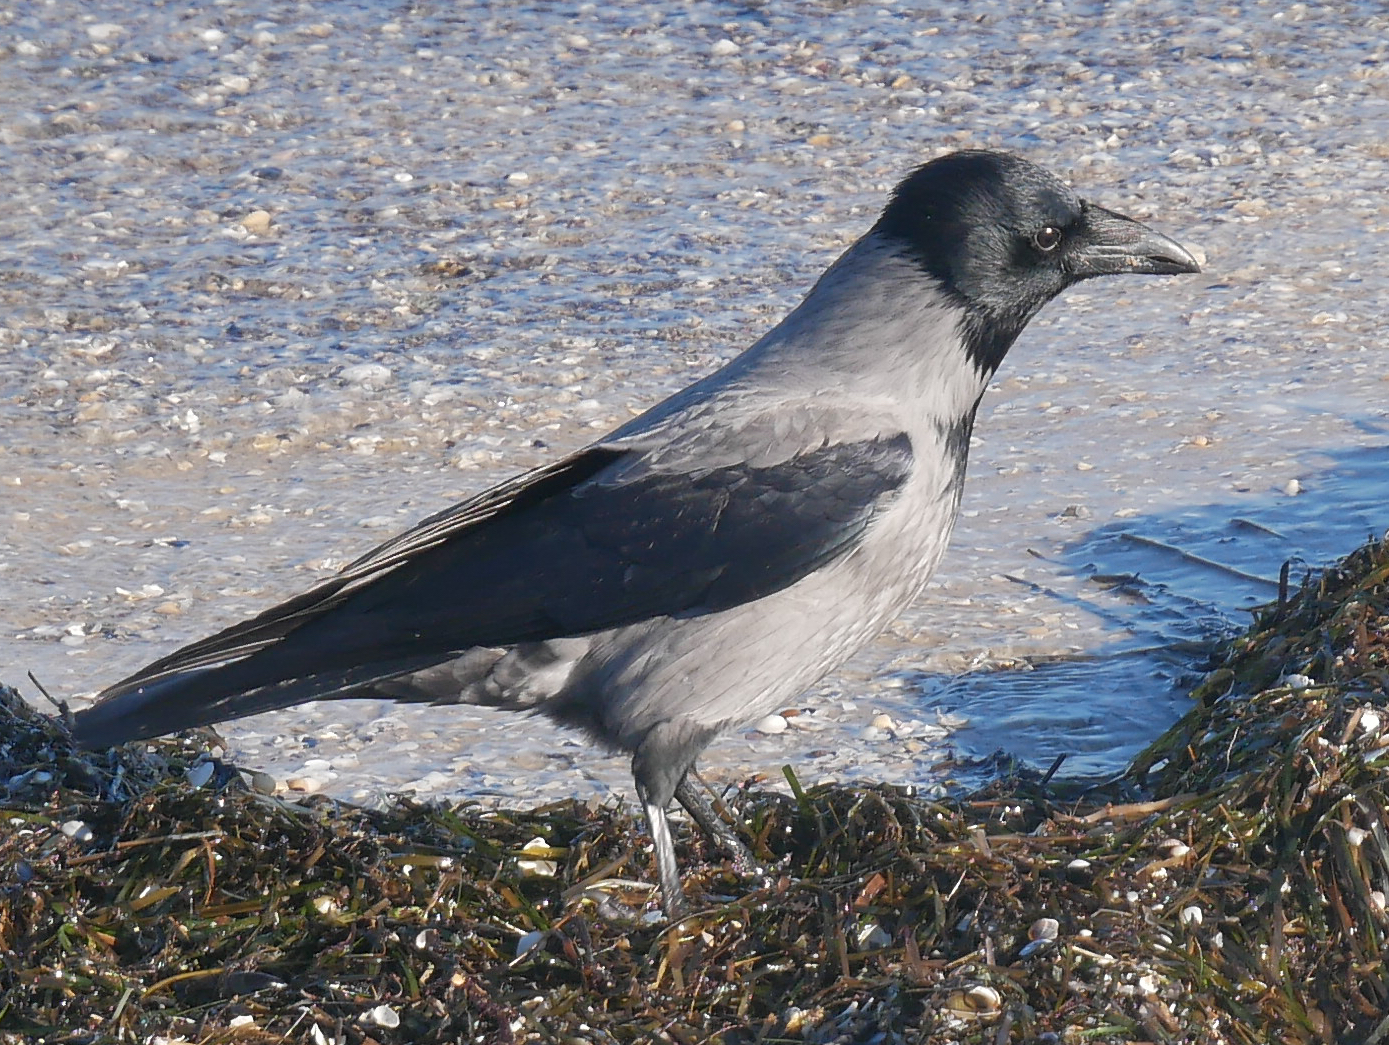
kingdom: Animalia
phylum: Chordata
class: Aves
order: Passeriformes
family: Corvidae
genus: Corvus
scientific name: Corvus cornix
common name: Hooded crow
